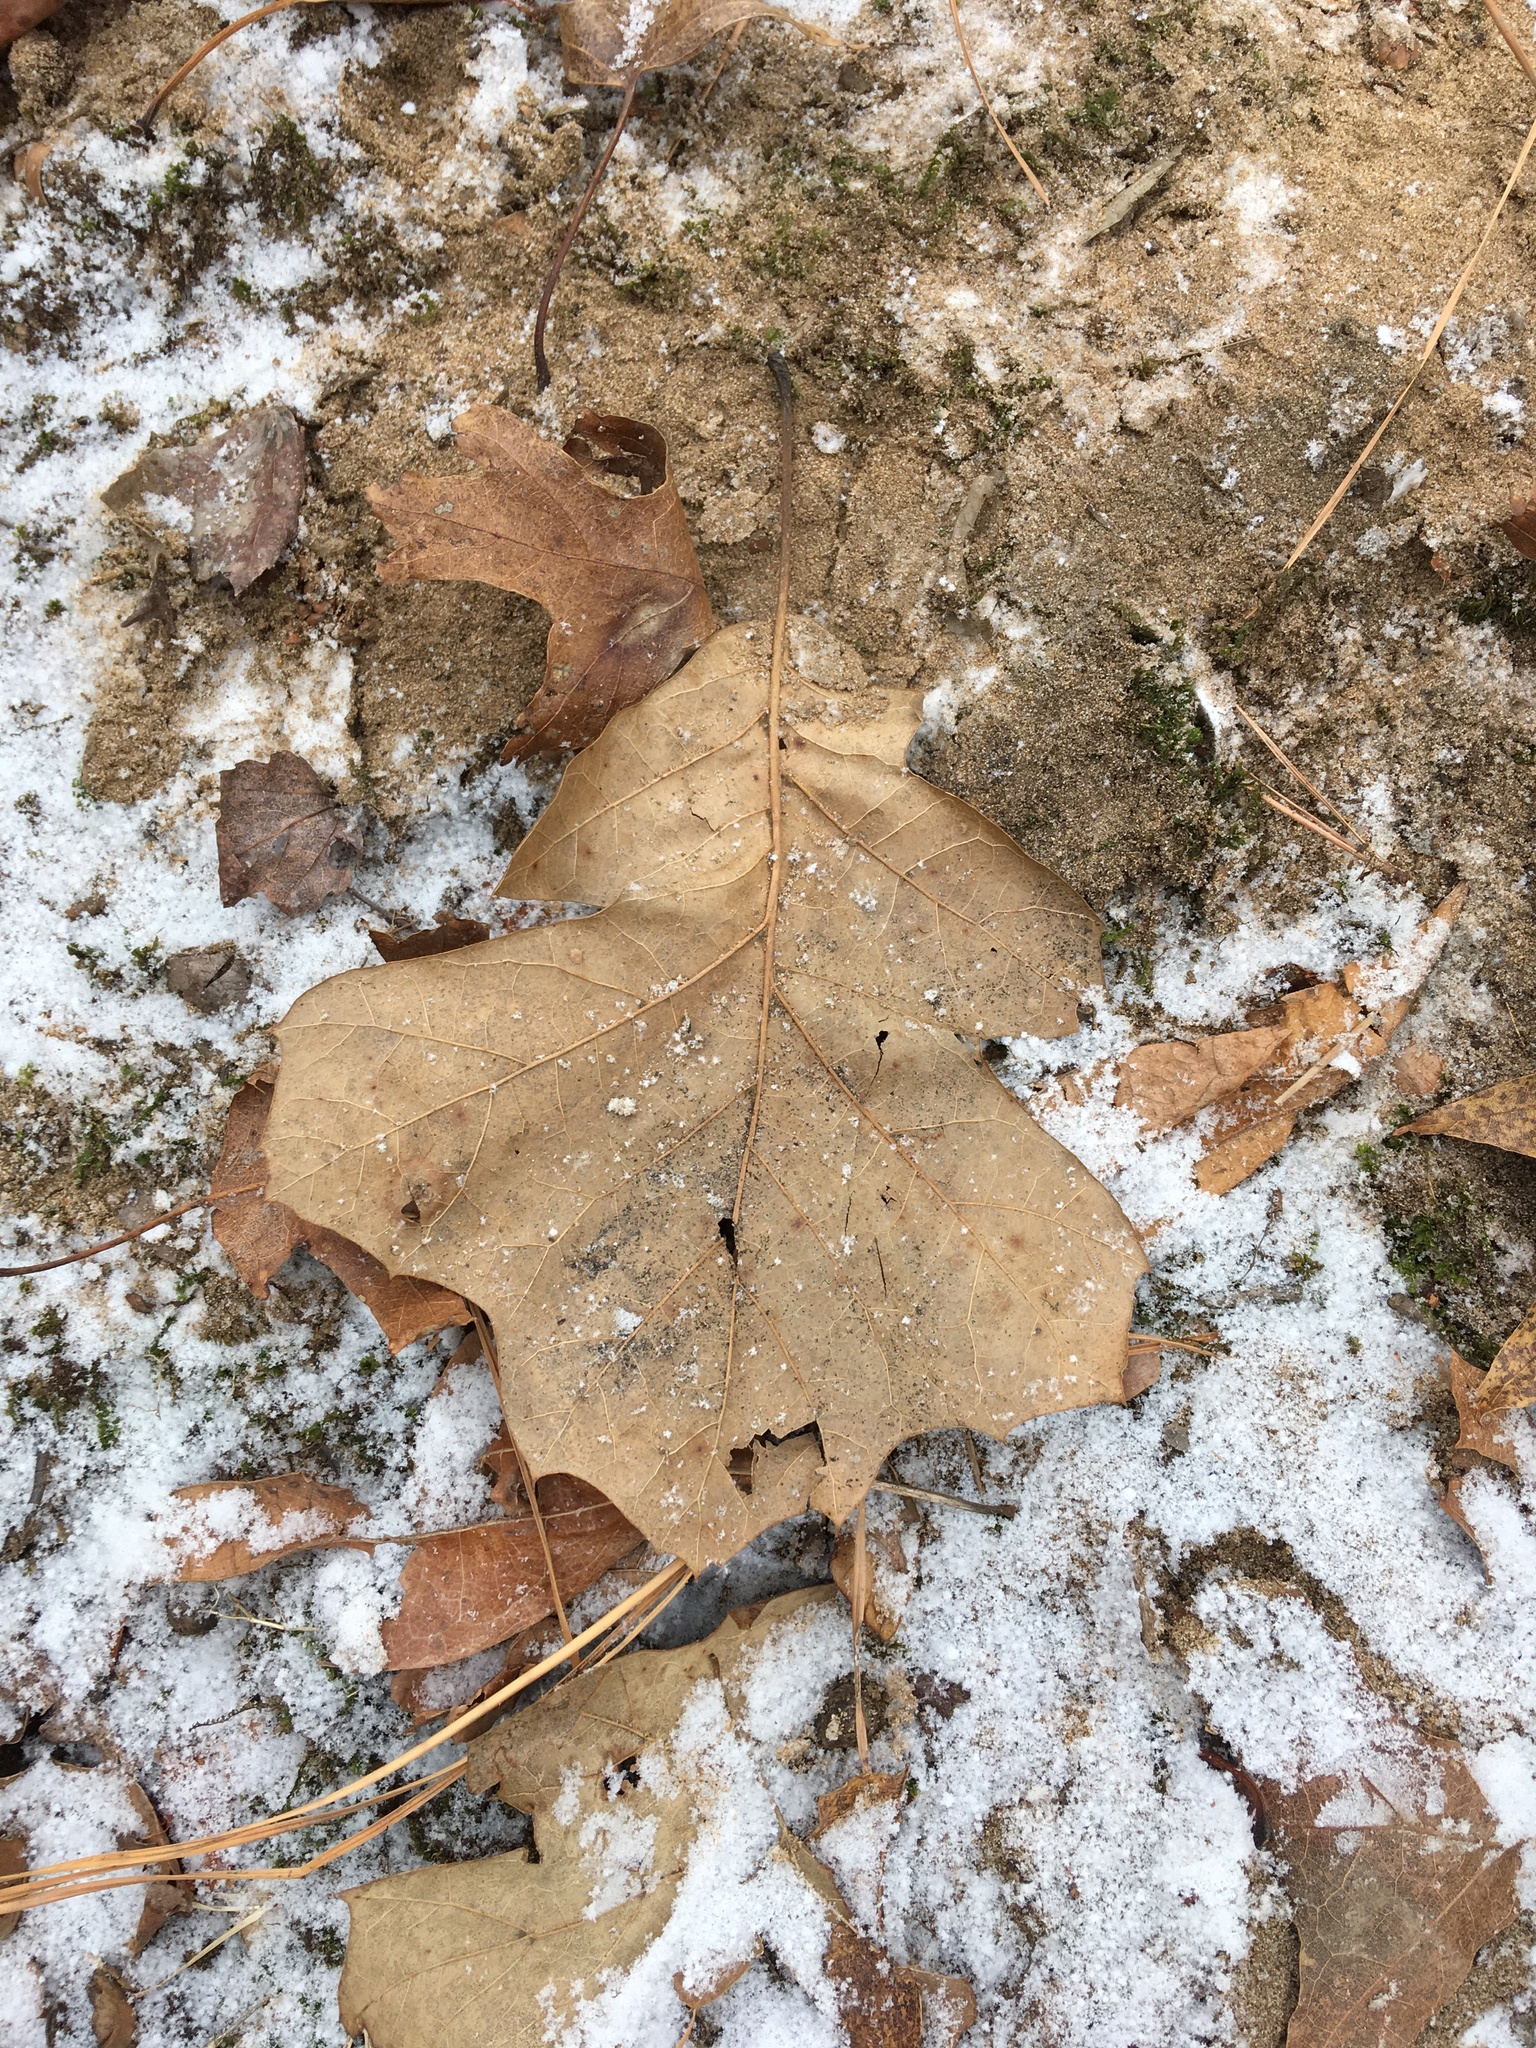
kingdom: Plantae
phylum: Tracheophyta
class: Magnoliopsida
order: Fagales
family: Fagaceae
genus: Quercus
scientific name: Quercus bushii
